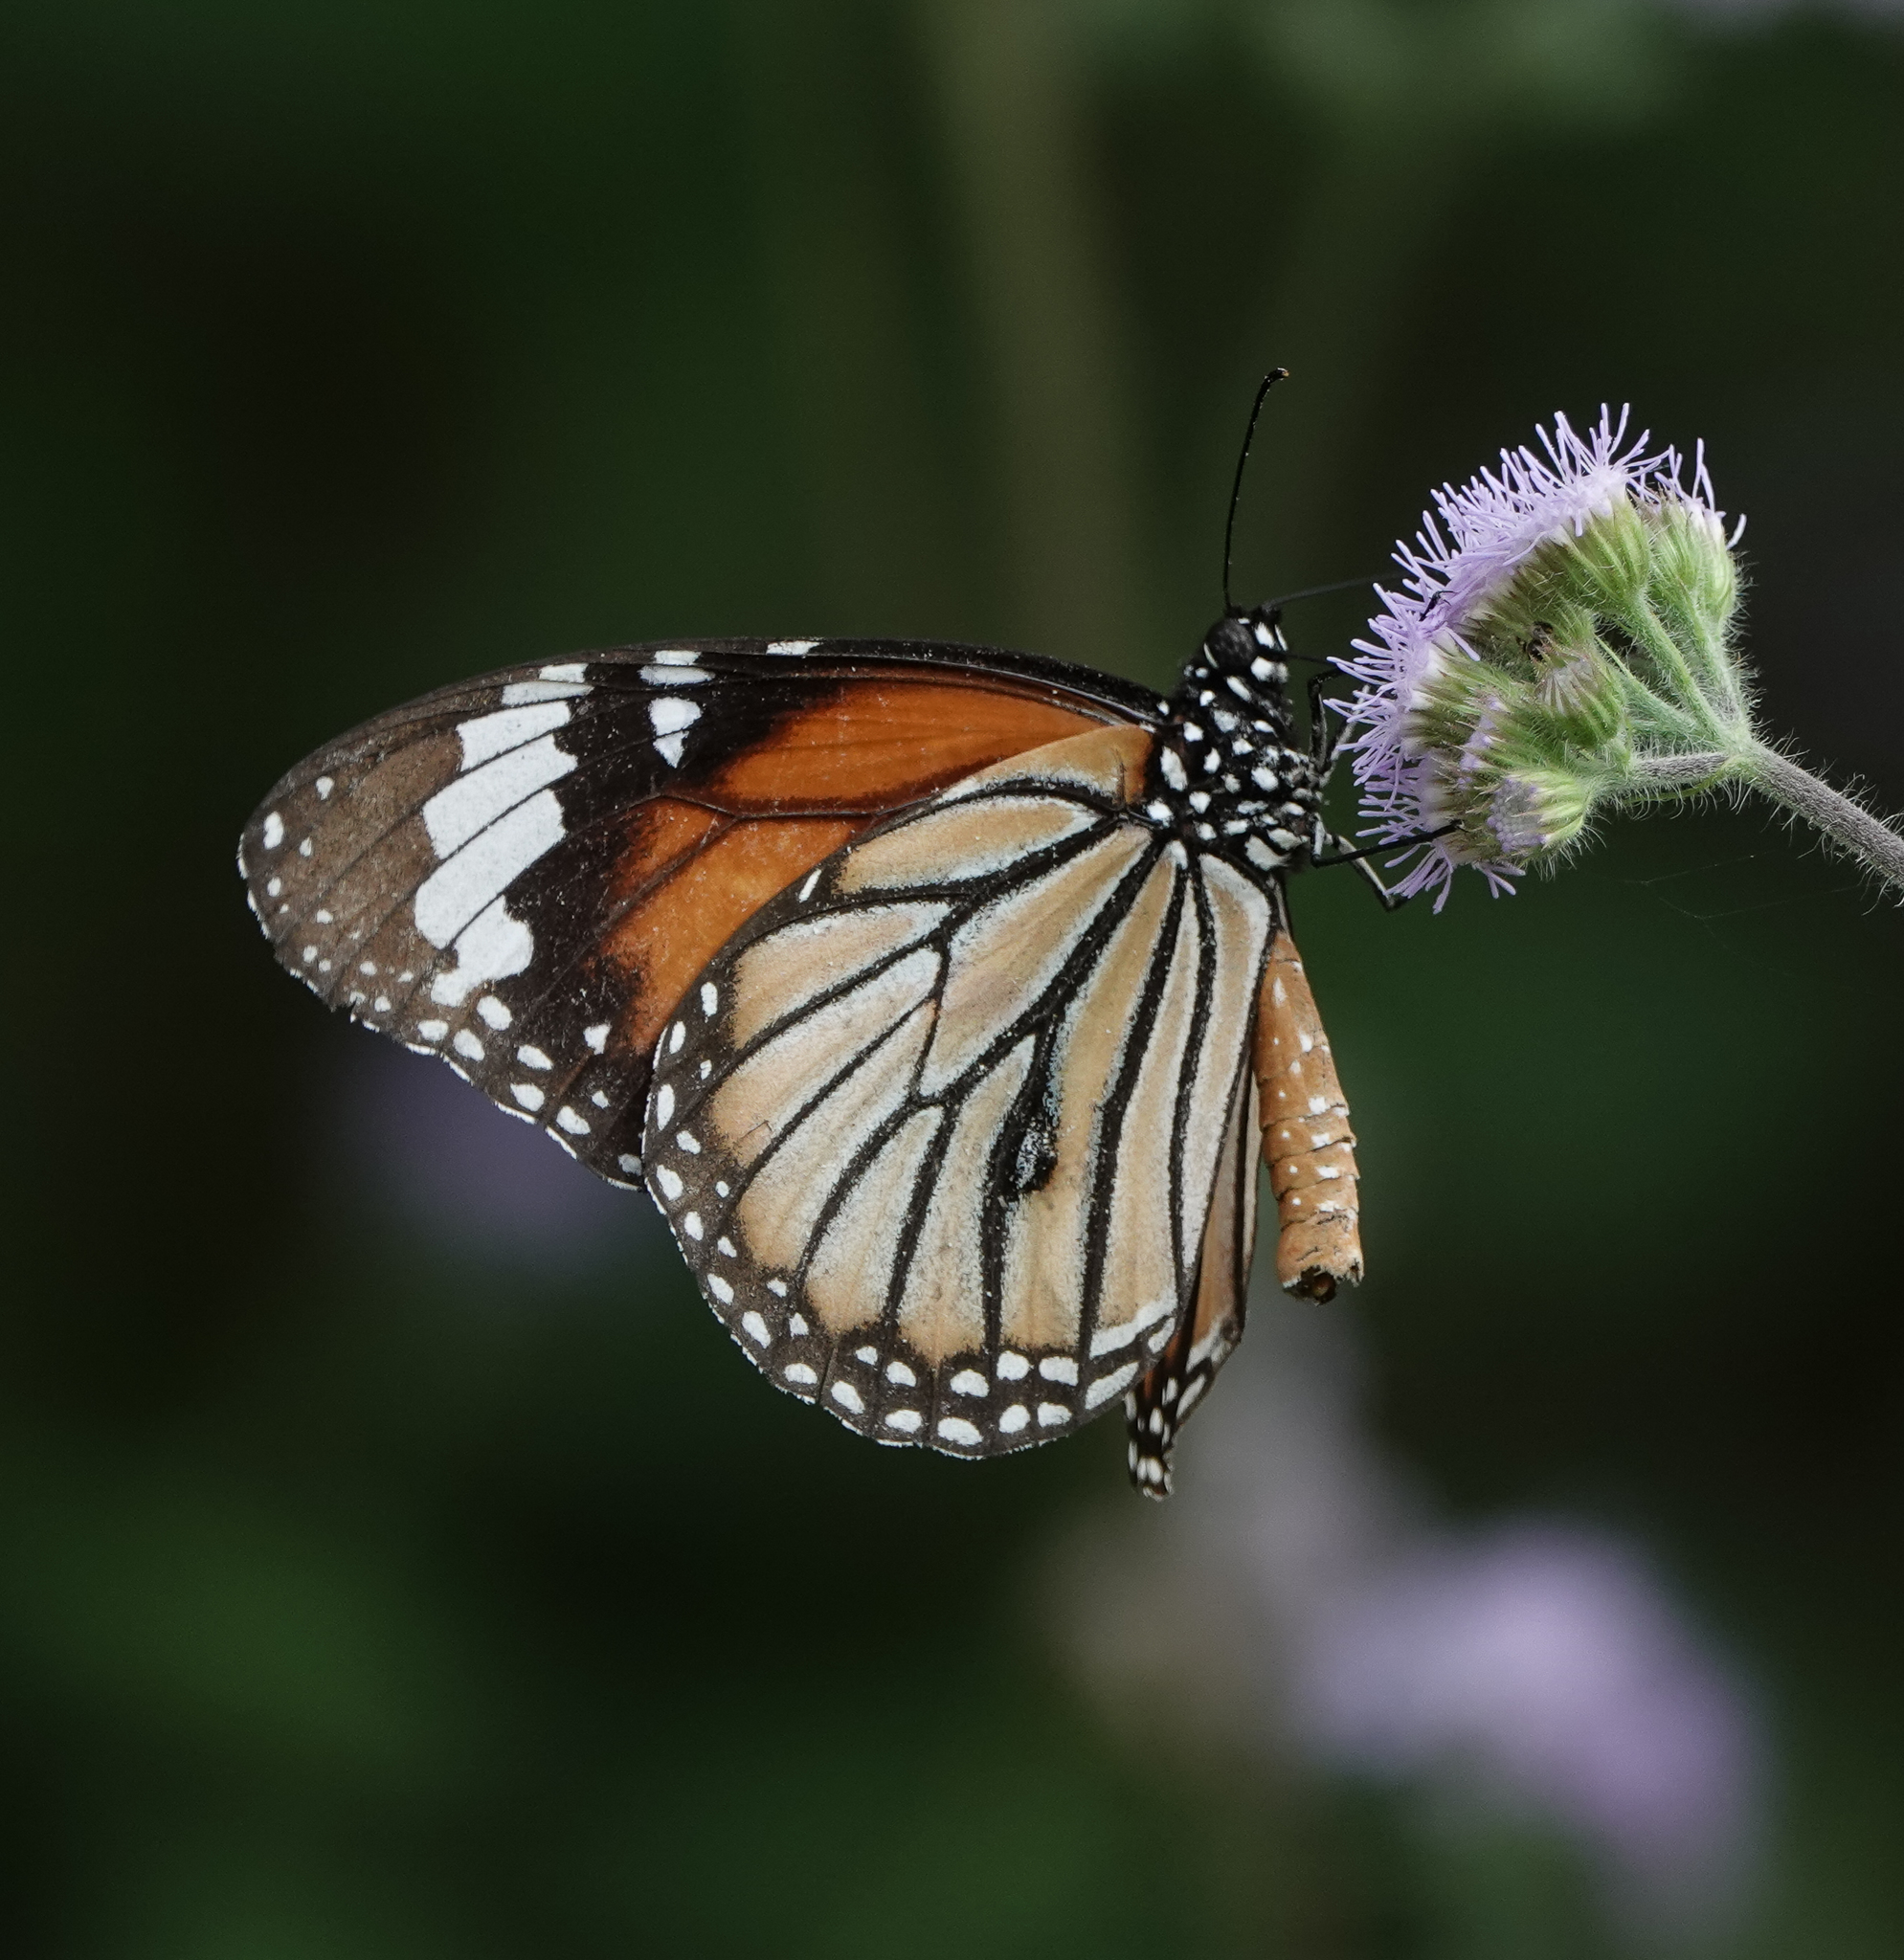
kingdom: Animalia
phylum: Arthropoda
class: Insecta
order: Lepidoptera
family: Nymphalidae
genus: Danaus
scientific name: Danaus genutia
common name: Common tiger butterfly
